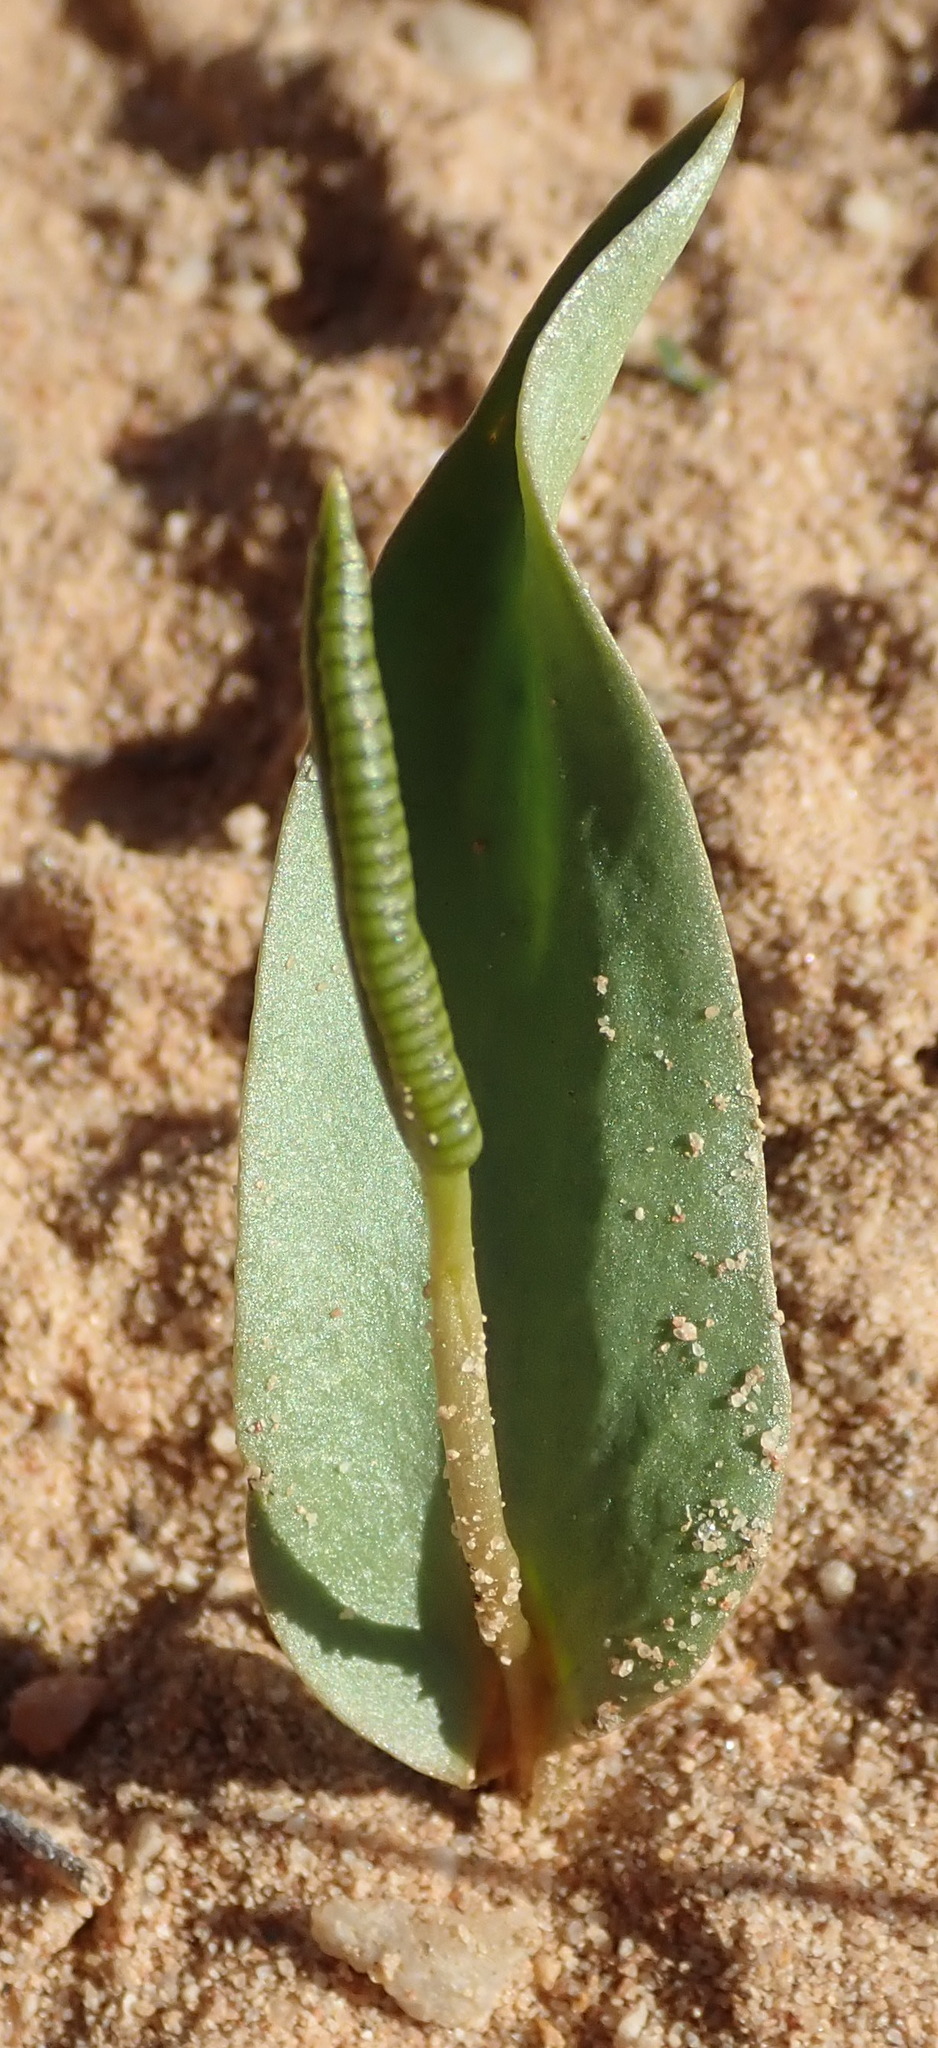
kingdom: Plantae
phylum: Tracheophyta
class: Polypodiopsida
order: Ophioglossales
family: Ophioglossaceae
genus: Ophioglossum
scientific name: Ophioglossum polyphyllum
